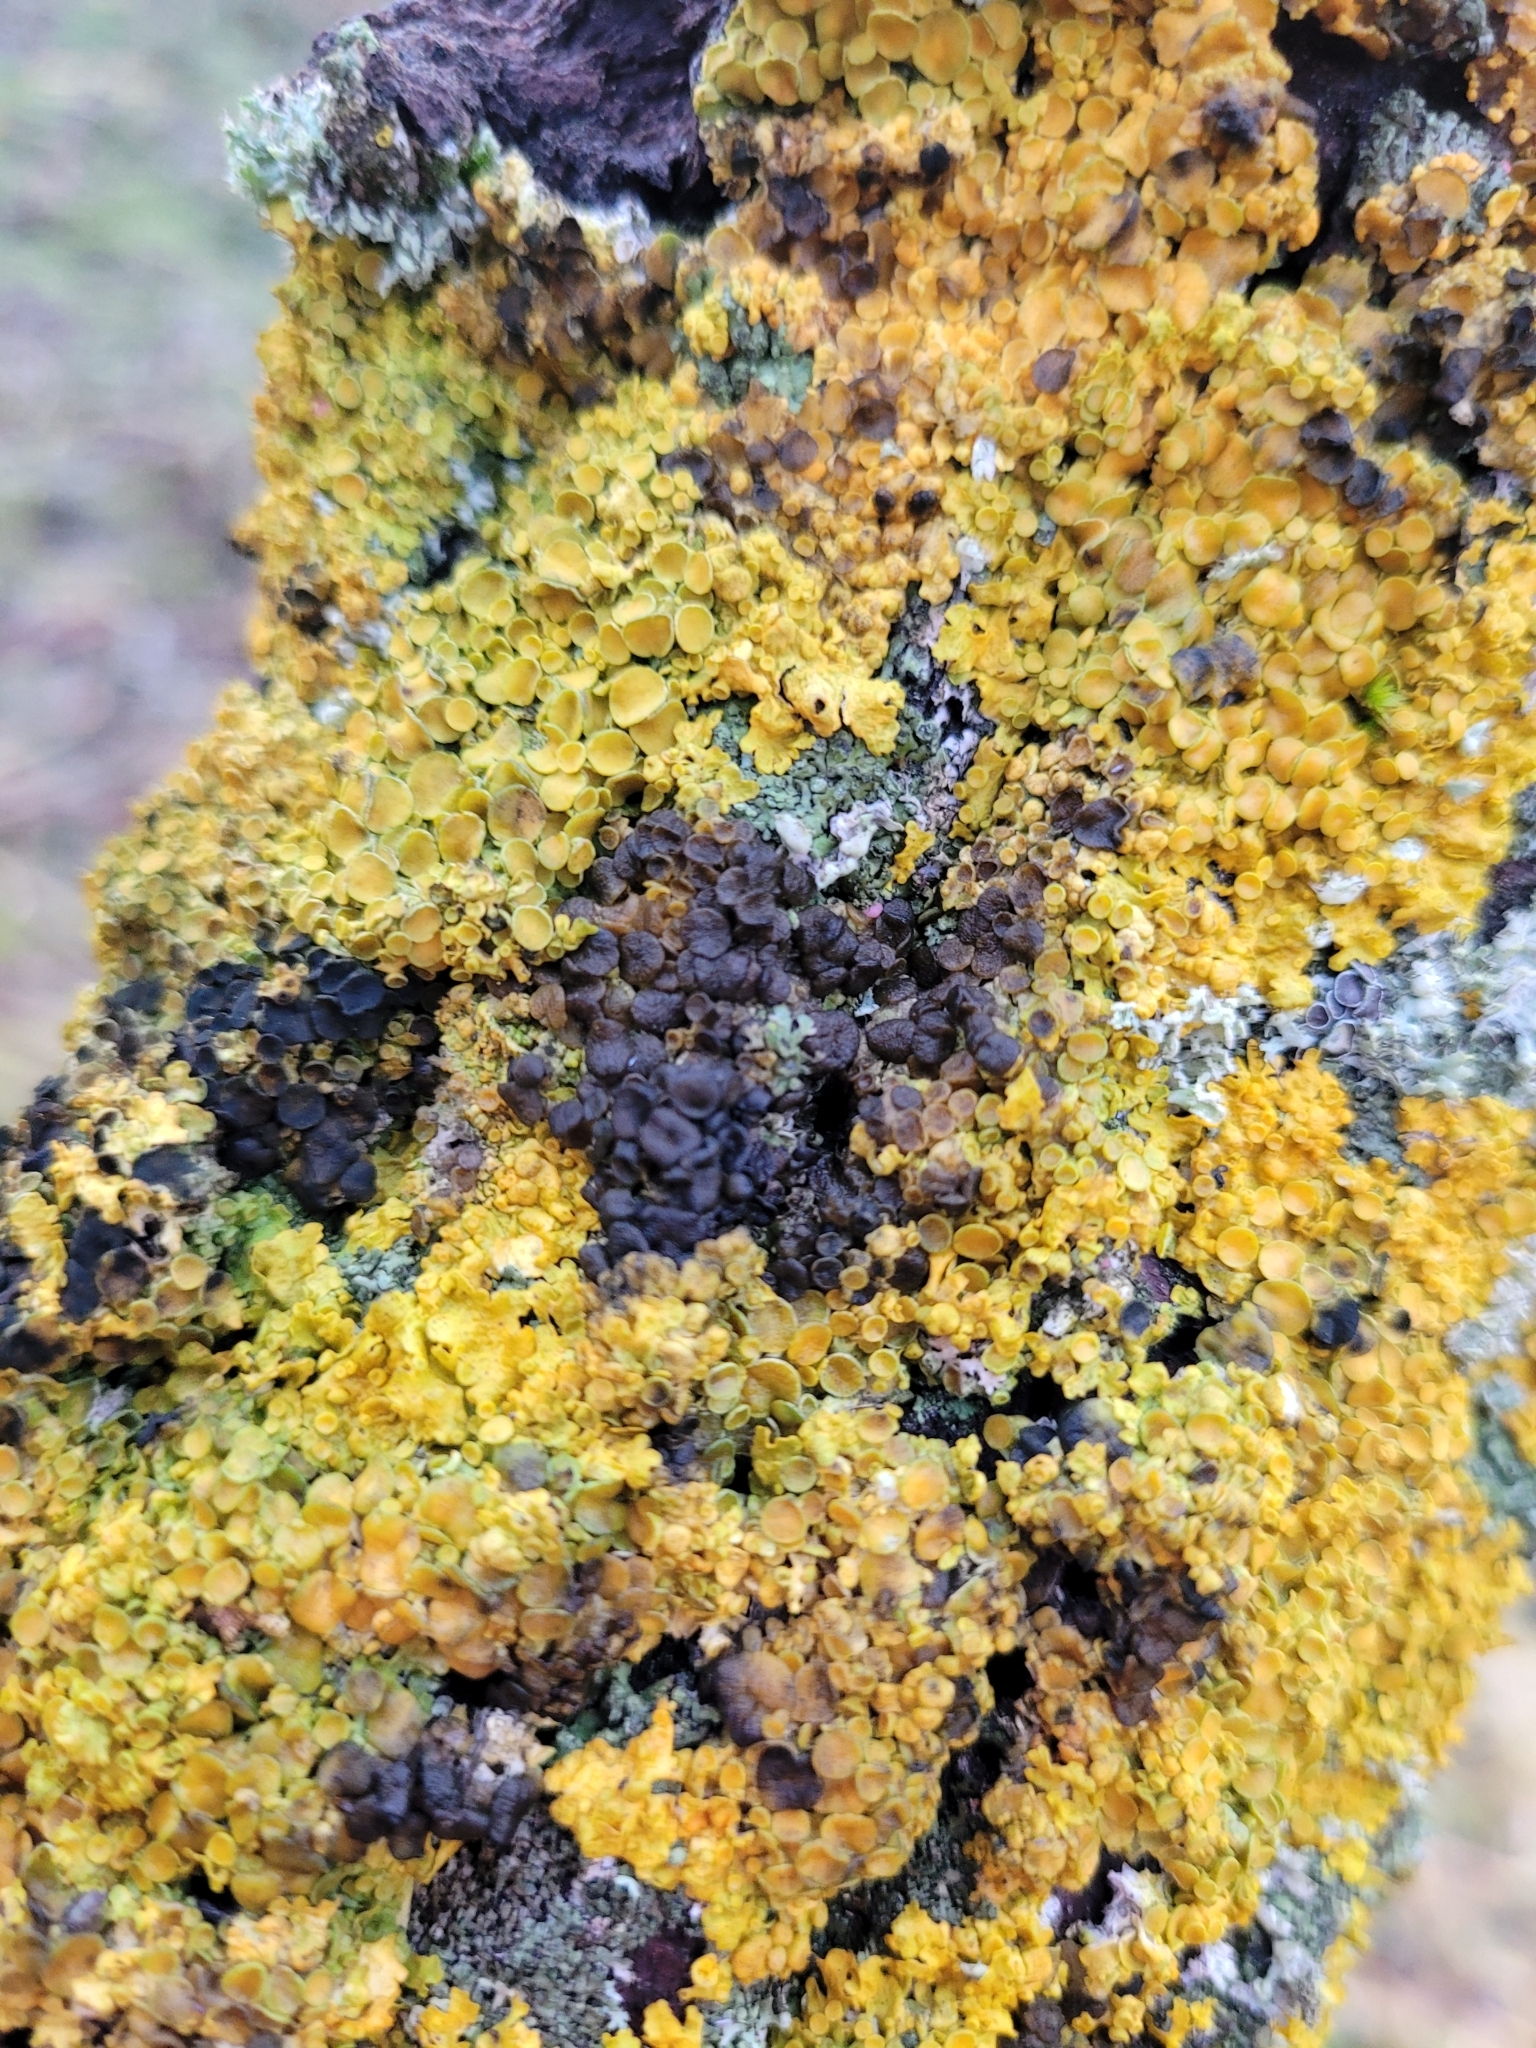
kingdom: Fungi
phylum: Ascomycota
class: Lecanoromycetes
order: Teloschistales
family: Teloschistaceae
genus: Xanthoria
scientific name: Xanthoria parietina
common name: Common orange lichen
